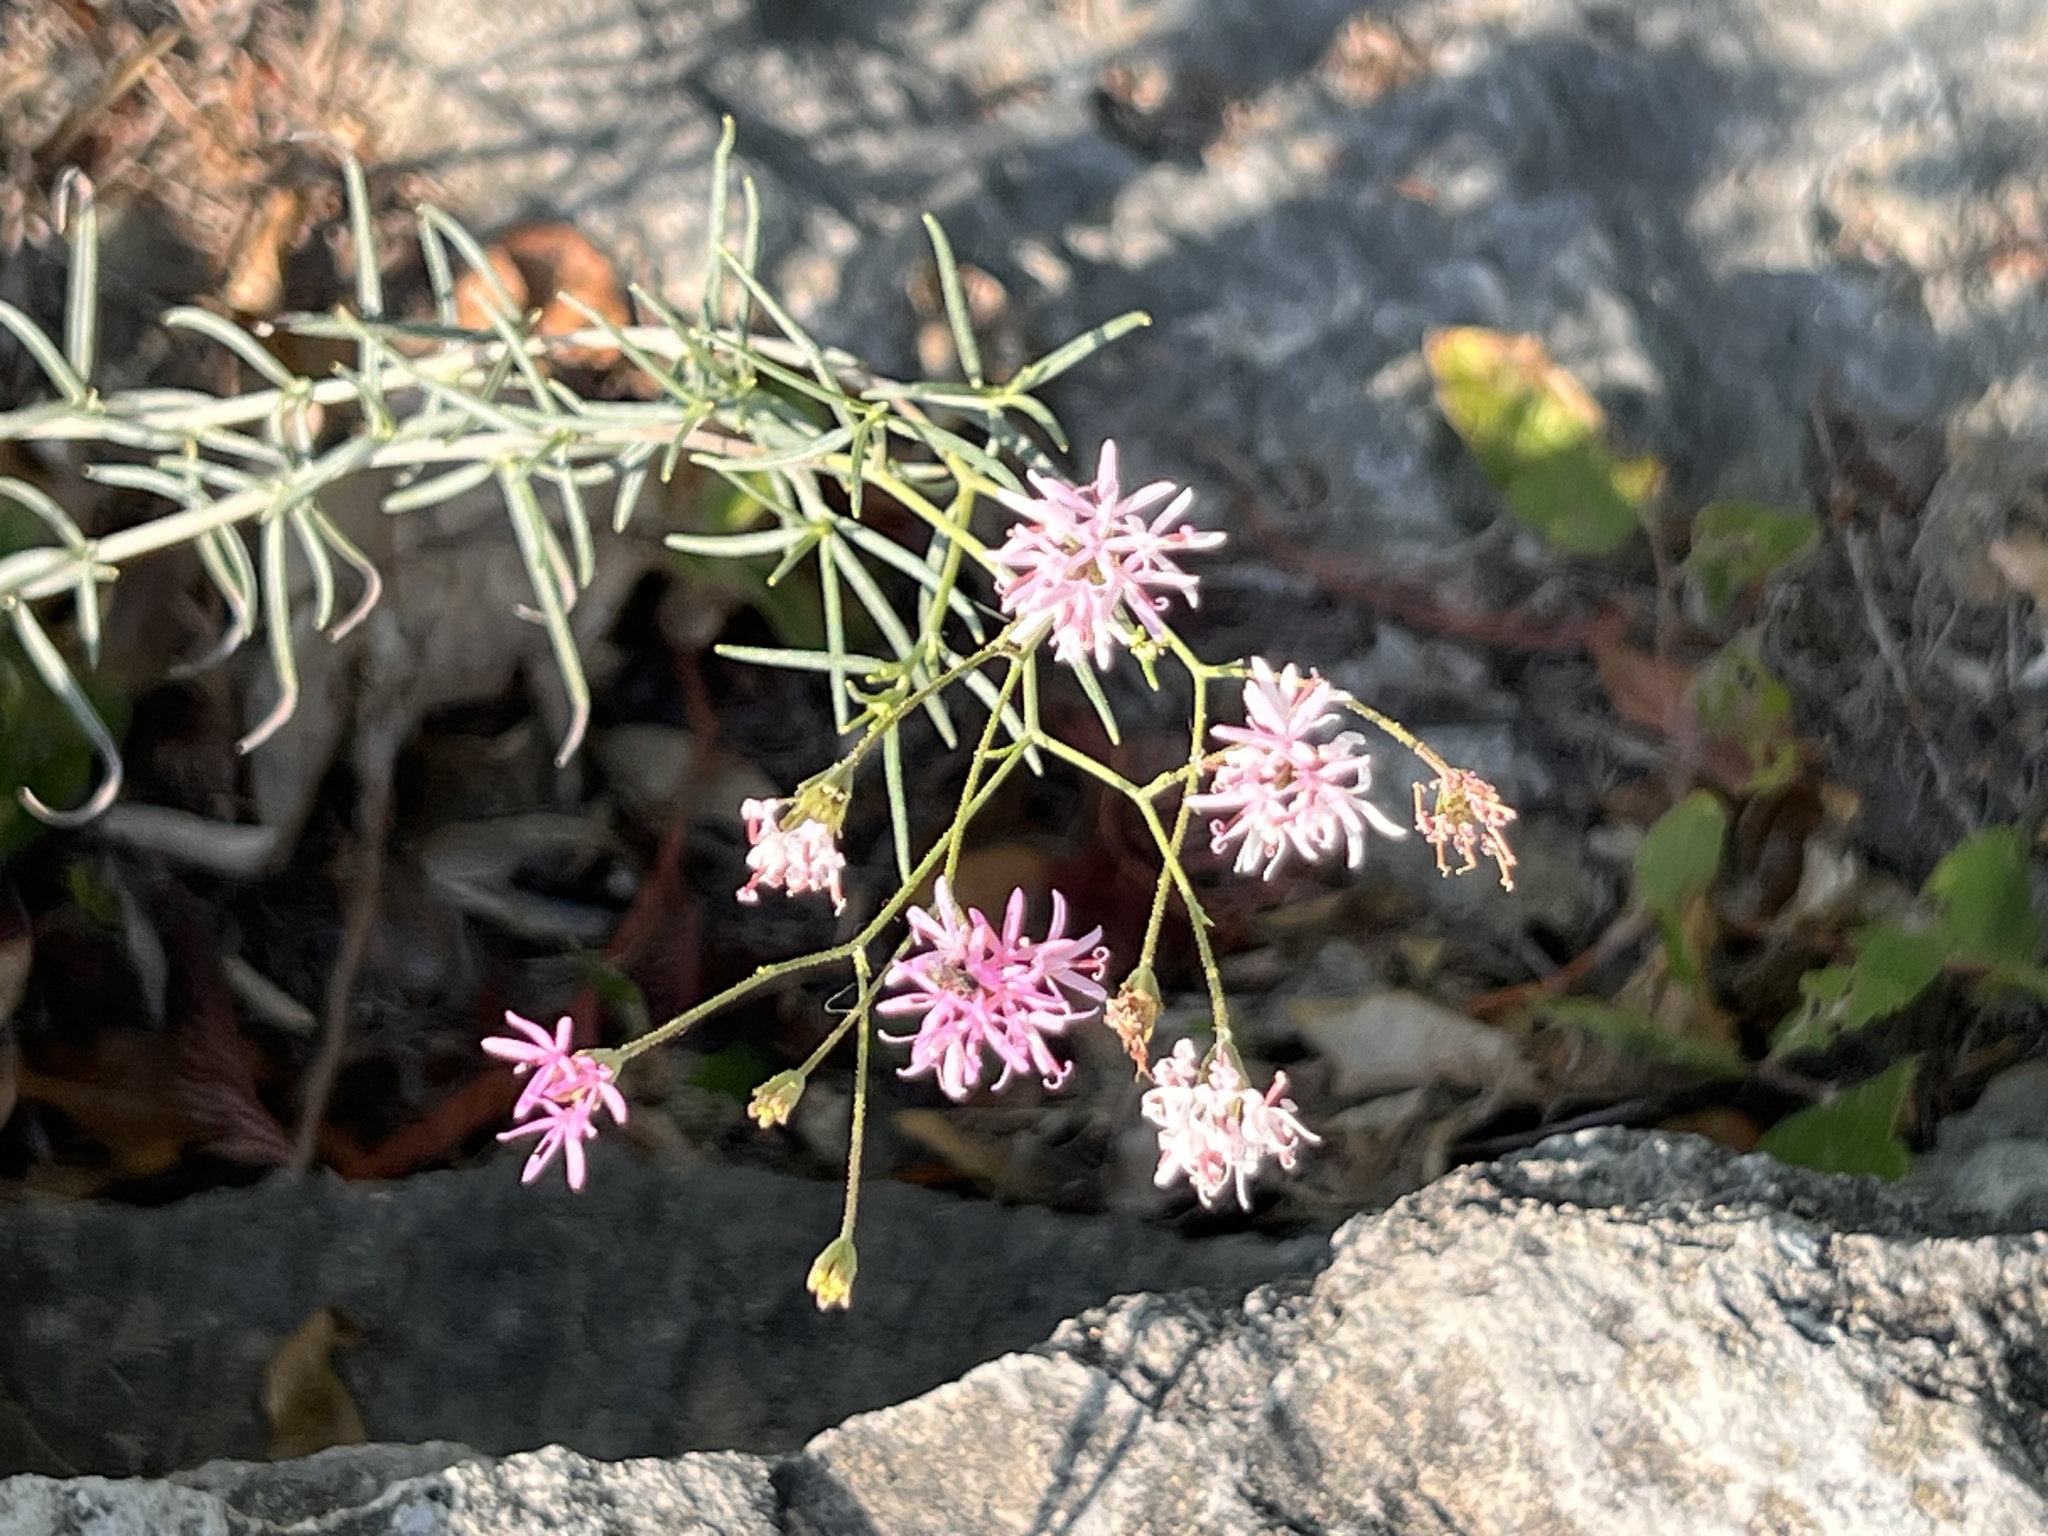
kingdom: Plantae
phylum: Tracheophyta
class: Magnoliopsida
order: Asterales
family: Asteraceae
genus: Palafoxia
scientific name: Palafoxia callosa
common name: Small palafox
